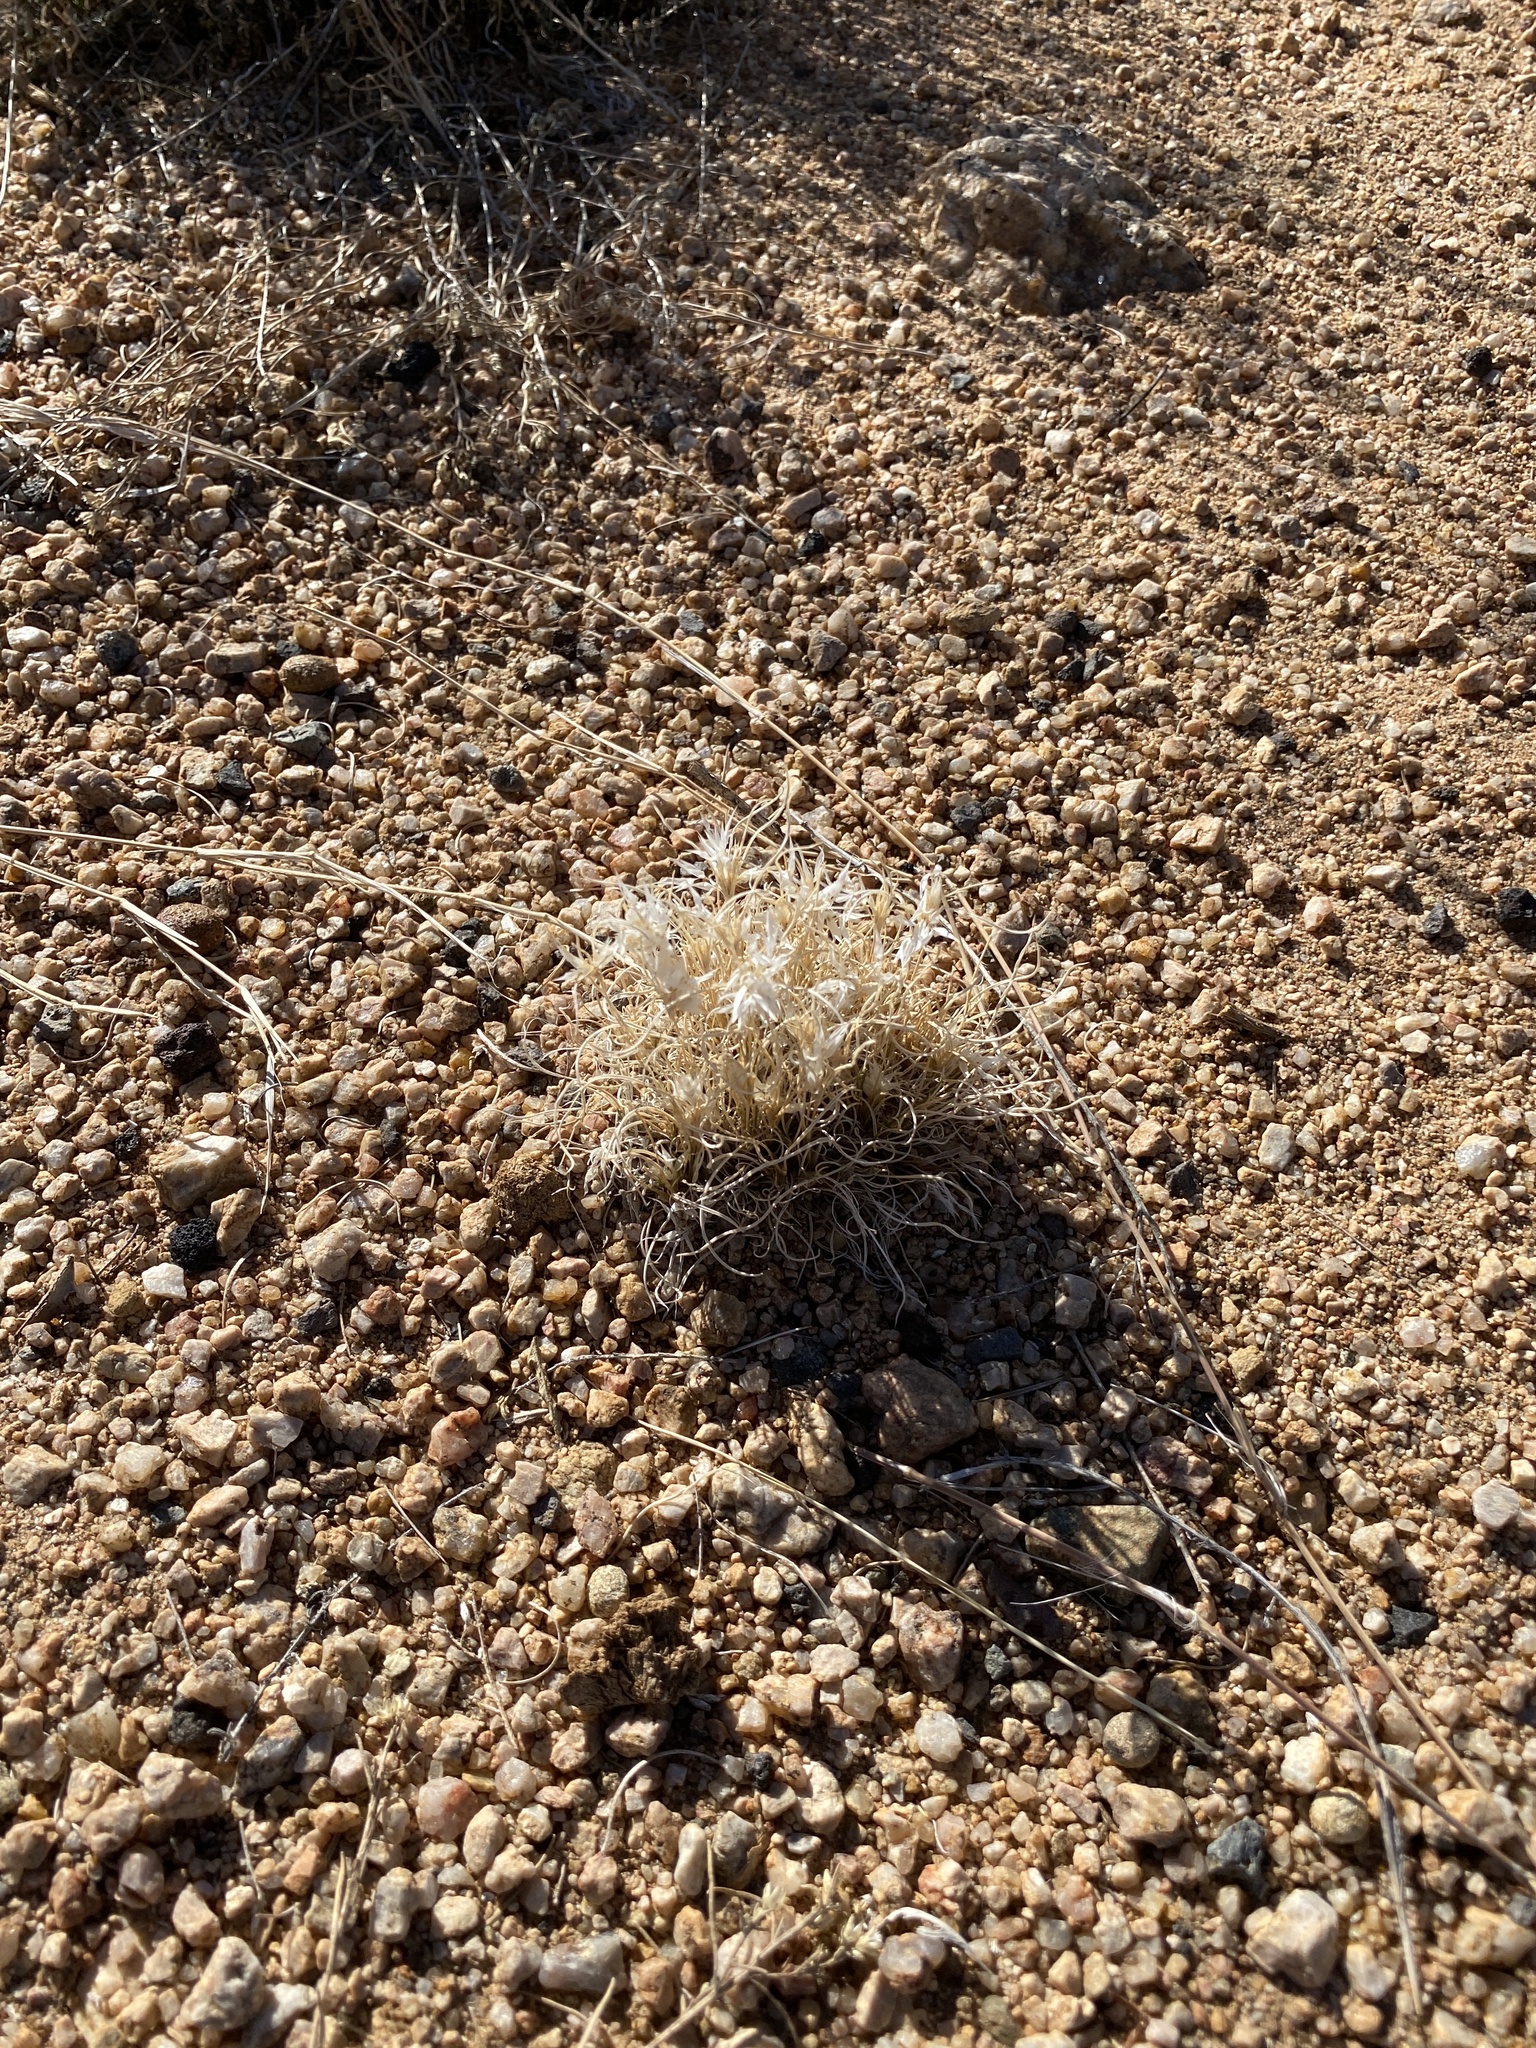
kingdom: Plantae
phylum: Tracheophyta
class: Liliopsida
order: Poales
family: Poaceae
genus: Dasyochloa
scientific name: Dasyochloa pulchella
